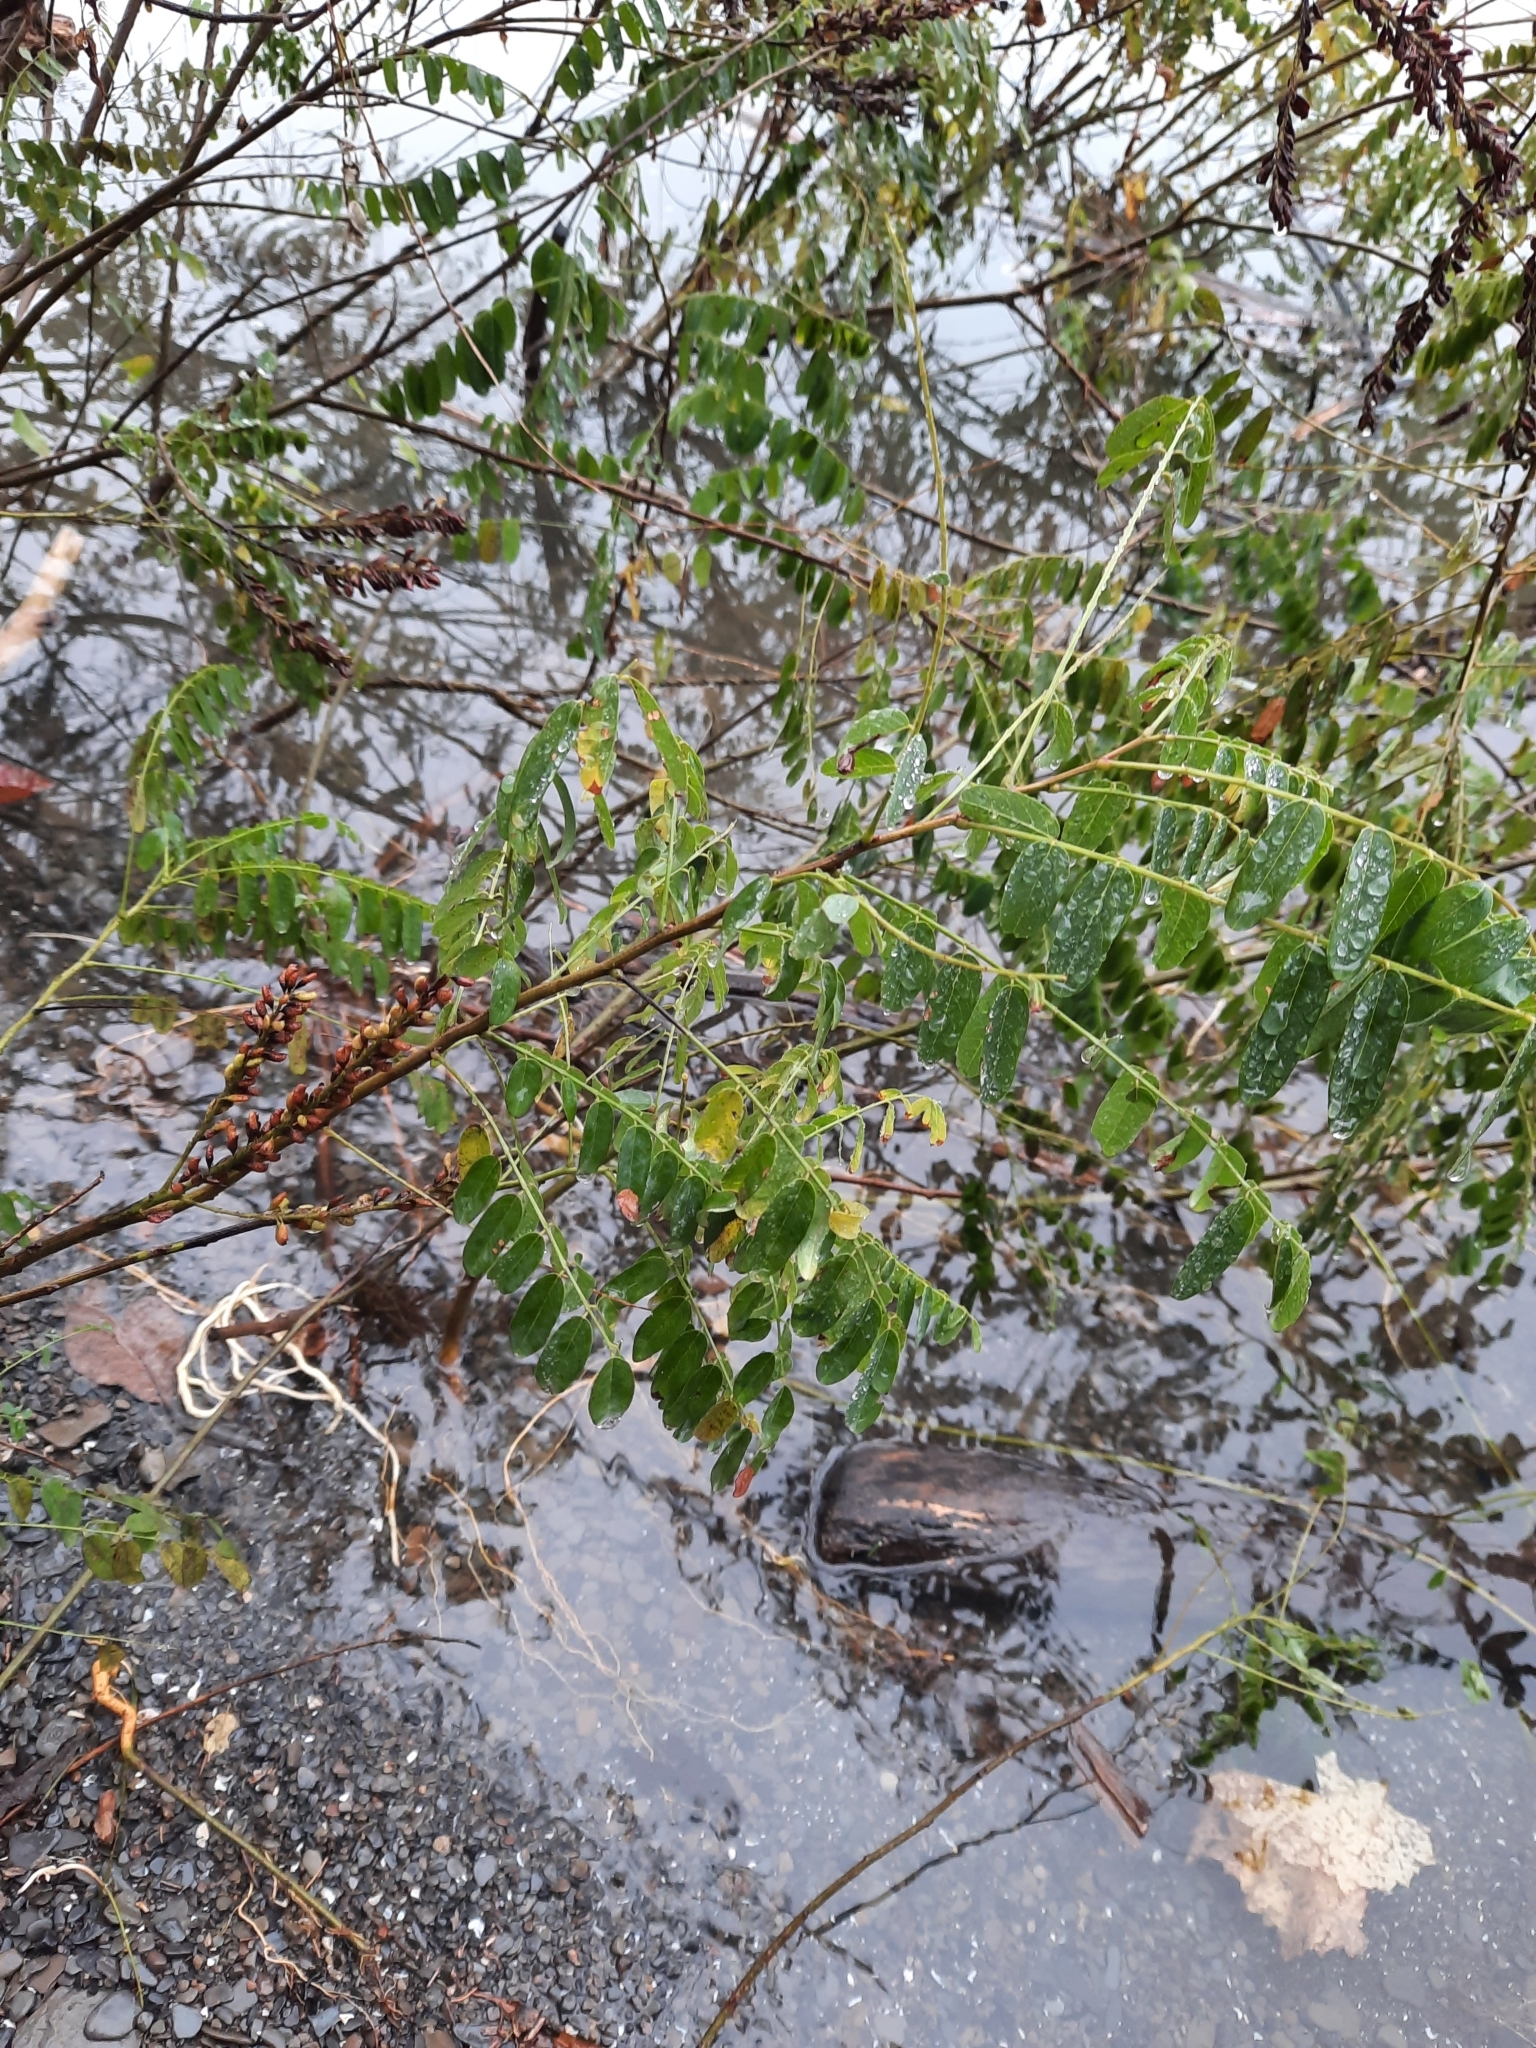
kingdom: Plantae
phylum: Tracheophyta
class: Magnoliopsida
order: Fabales
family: Fabaceae
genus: Amorpha
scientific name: Amorpha fruticosa
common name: False indigo
